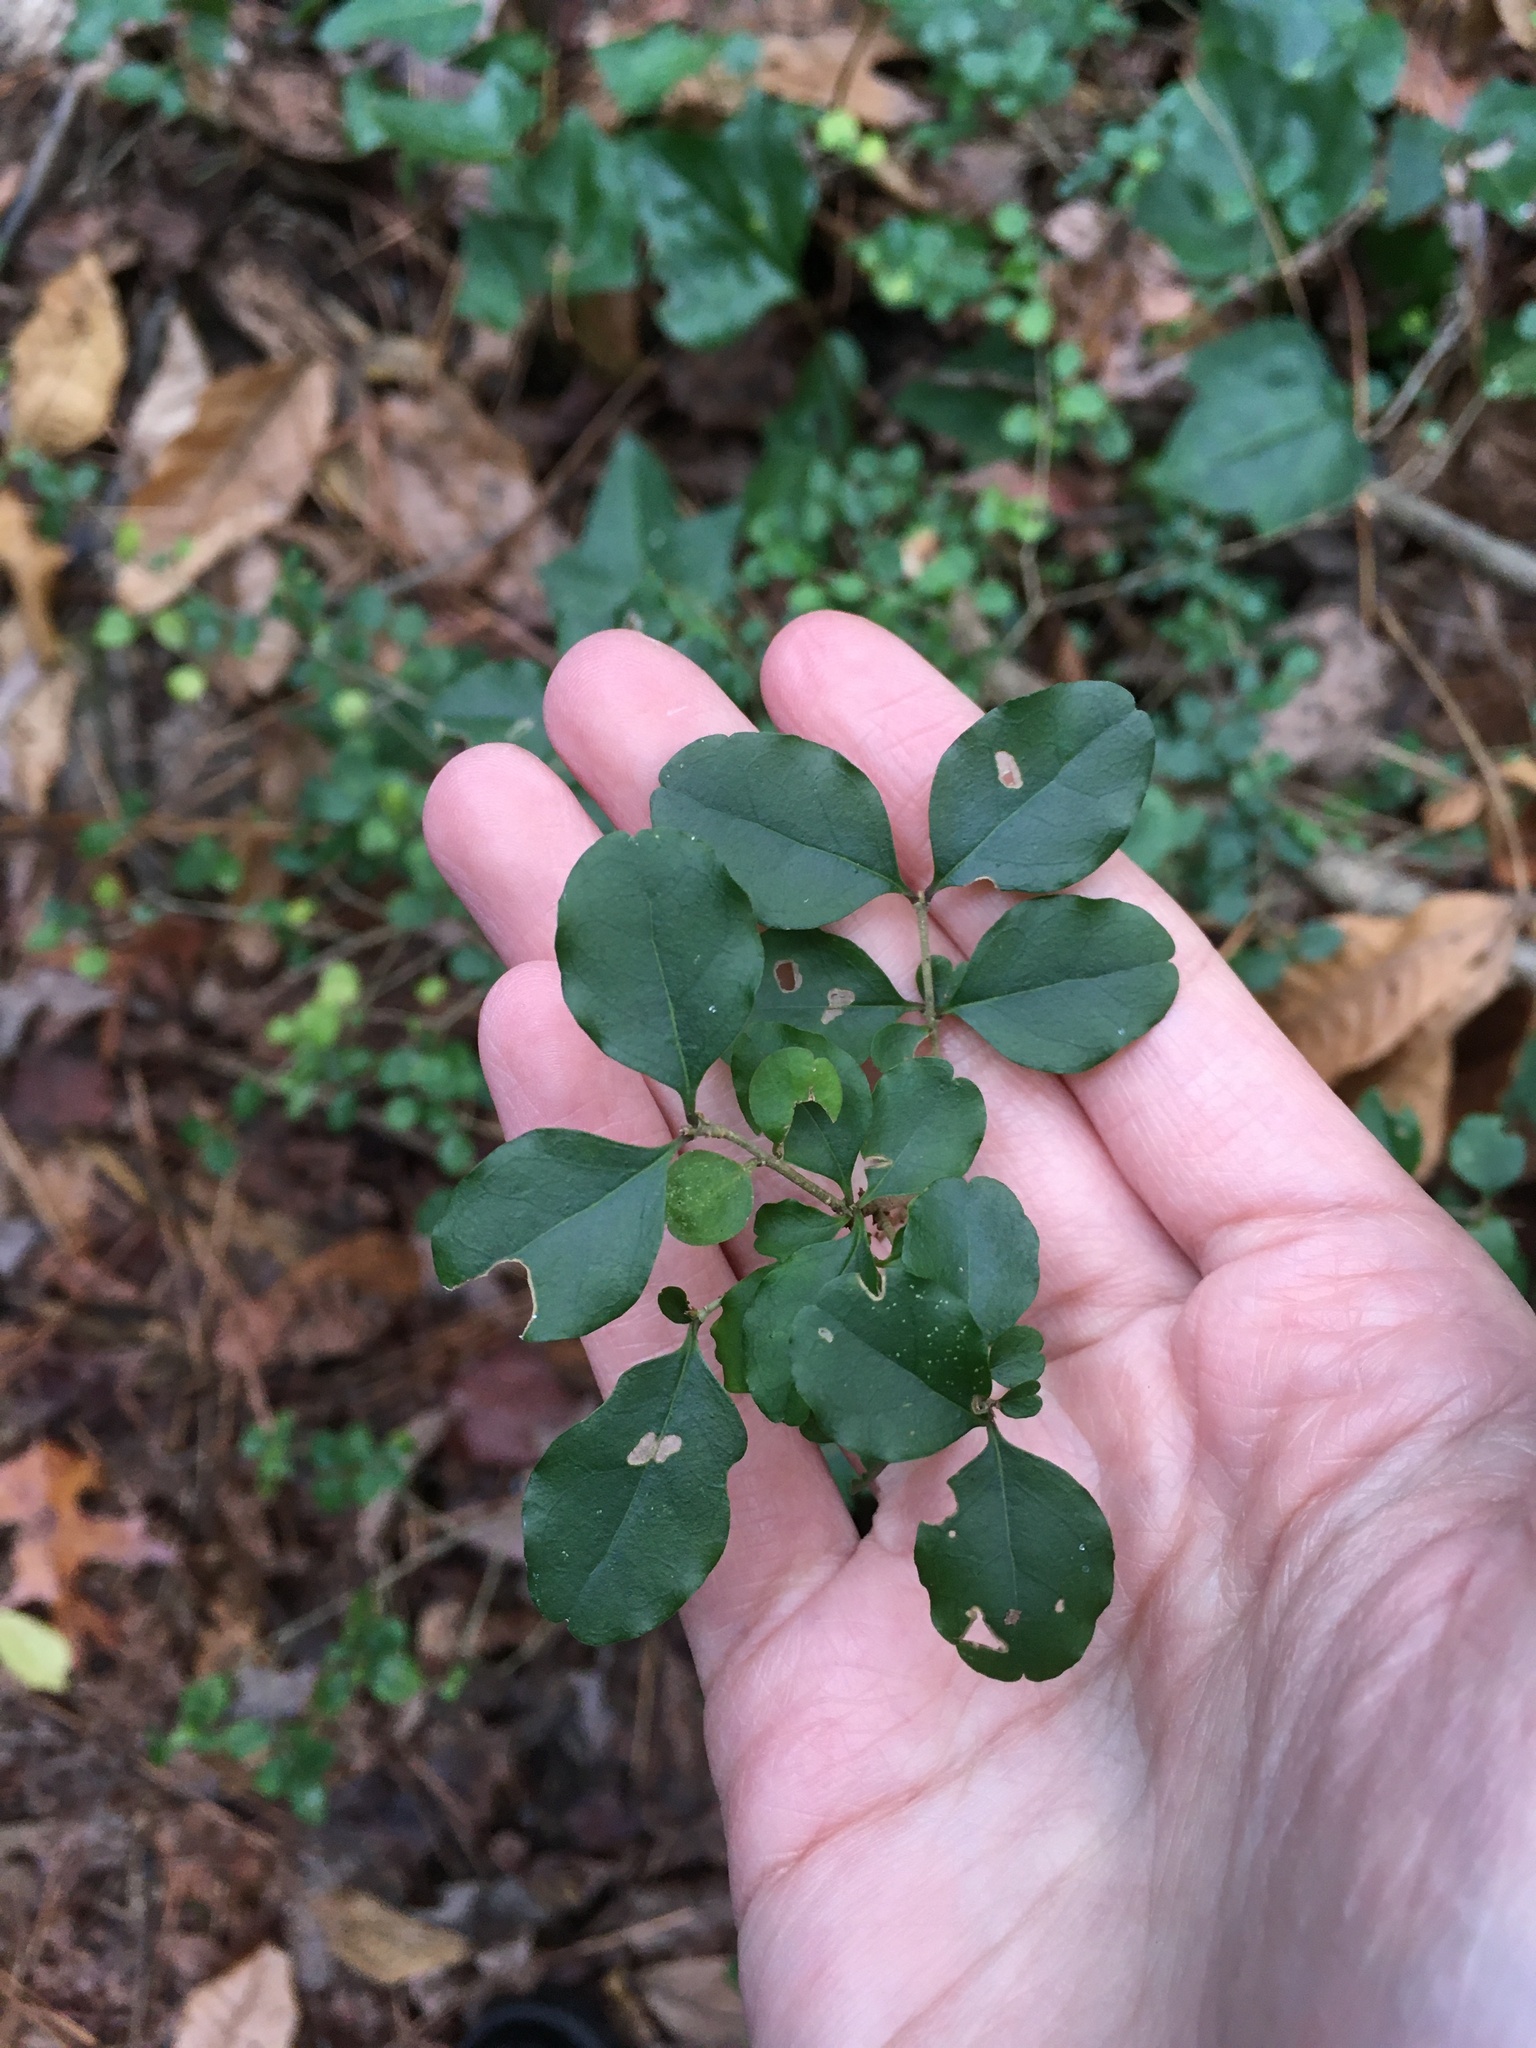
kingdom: Plantae
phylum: Tracheophyta
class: Magnoliopsida
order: Lamiales
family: Oleaceae
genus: Ligustrum
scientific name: Ligustrum sinense
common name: Chinese privet
